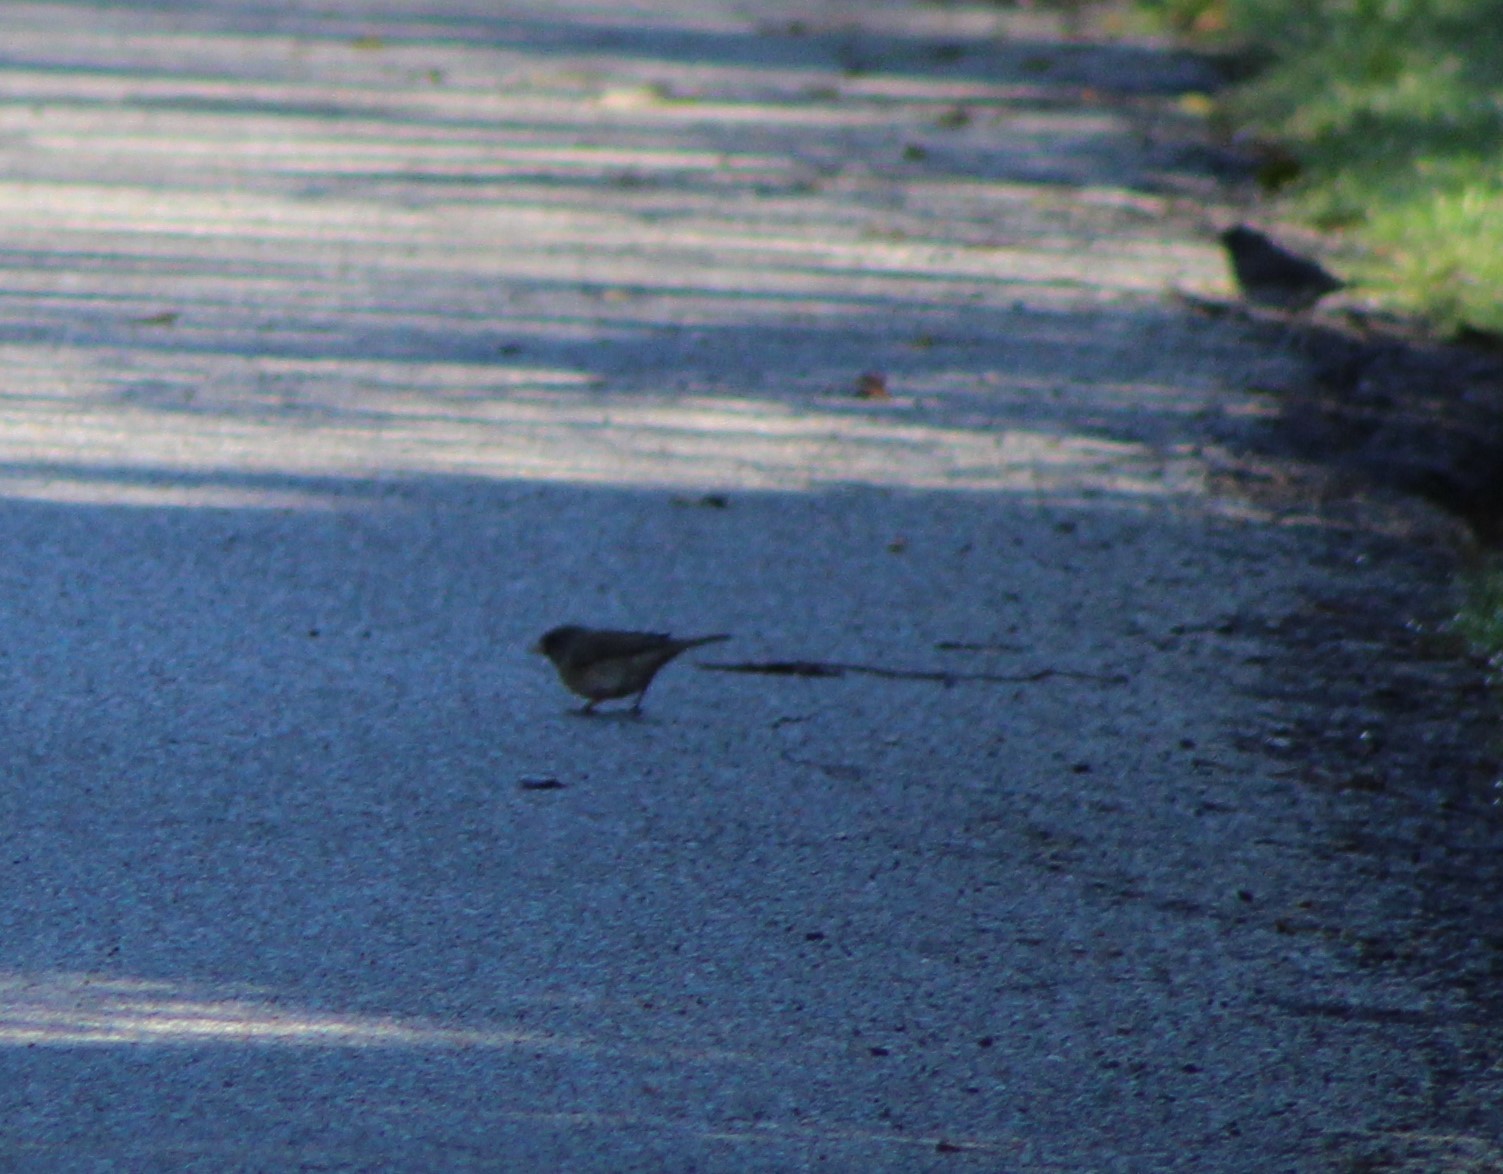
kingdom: Animalia
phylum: Chordata
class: Aves
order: Passeriformes
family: Passerellidae
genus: Junco
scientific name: Junco hyemalis
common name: Dark-eyed junco
